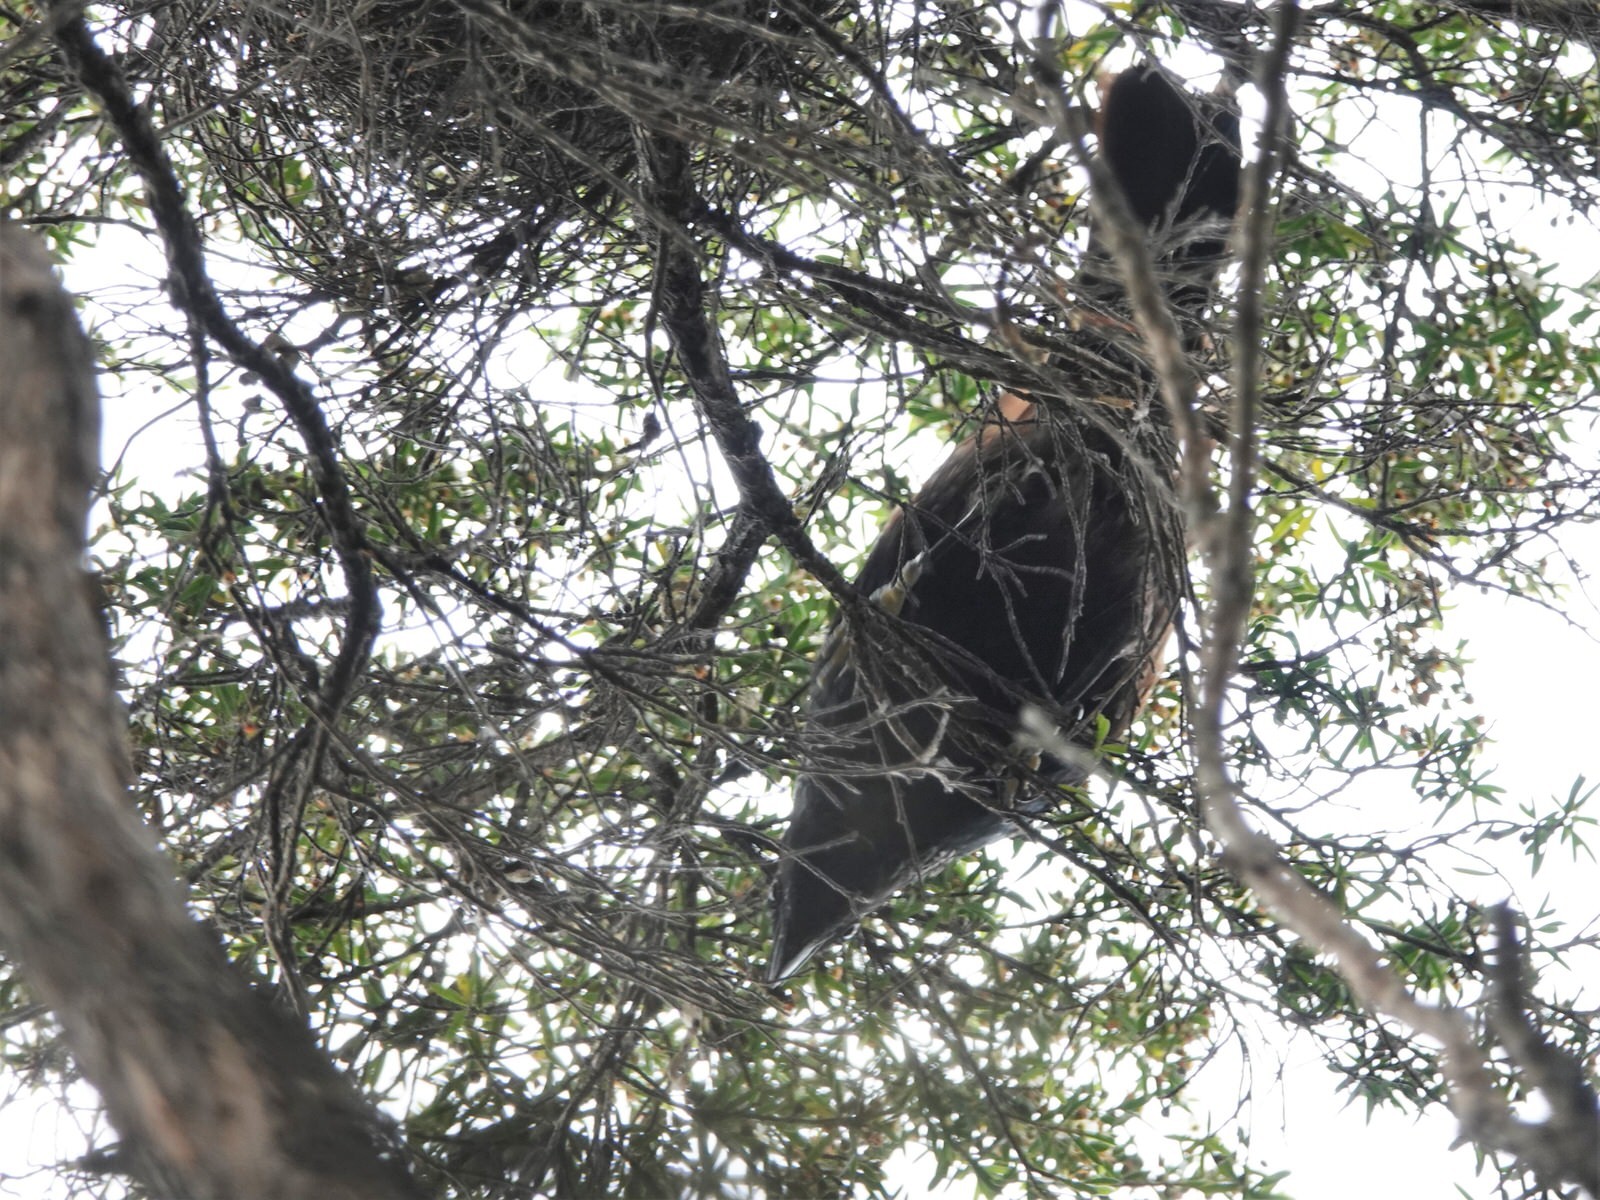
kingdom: Animalia
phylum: Chordata
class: Aves
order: Passeriformes
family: Meliphagidae
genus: Prosthemadera
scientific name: Prosthemadera novaeseelandiae
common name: Tui
